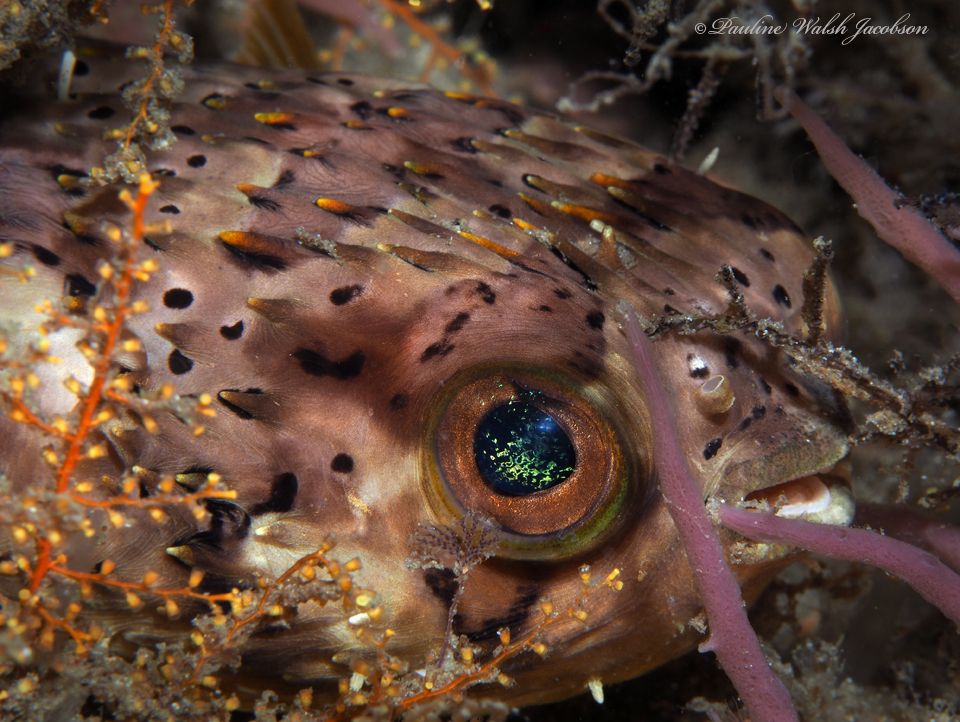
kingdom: Animalia
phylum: Chordata
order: Tetraodontiformes
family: Diodontidae
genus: Diodon
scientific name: Diodon holocanthus
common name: Balloonfish
